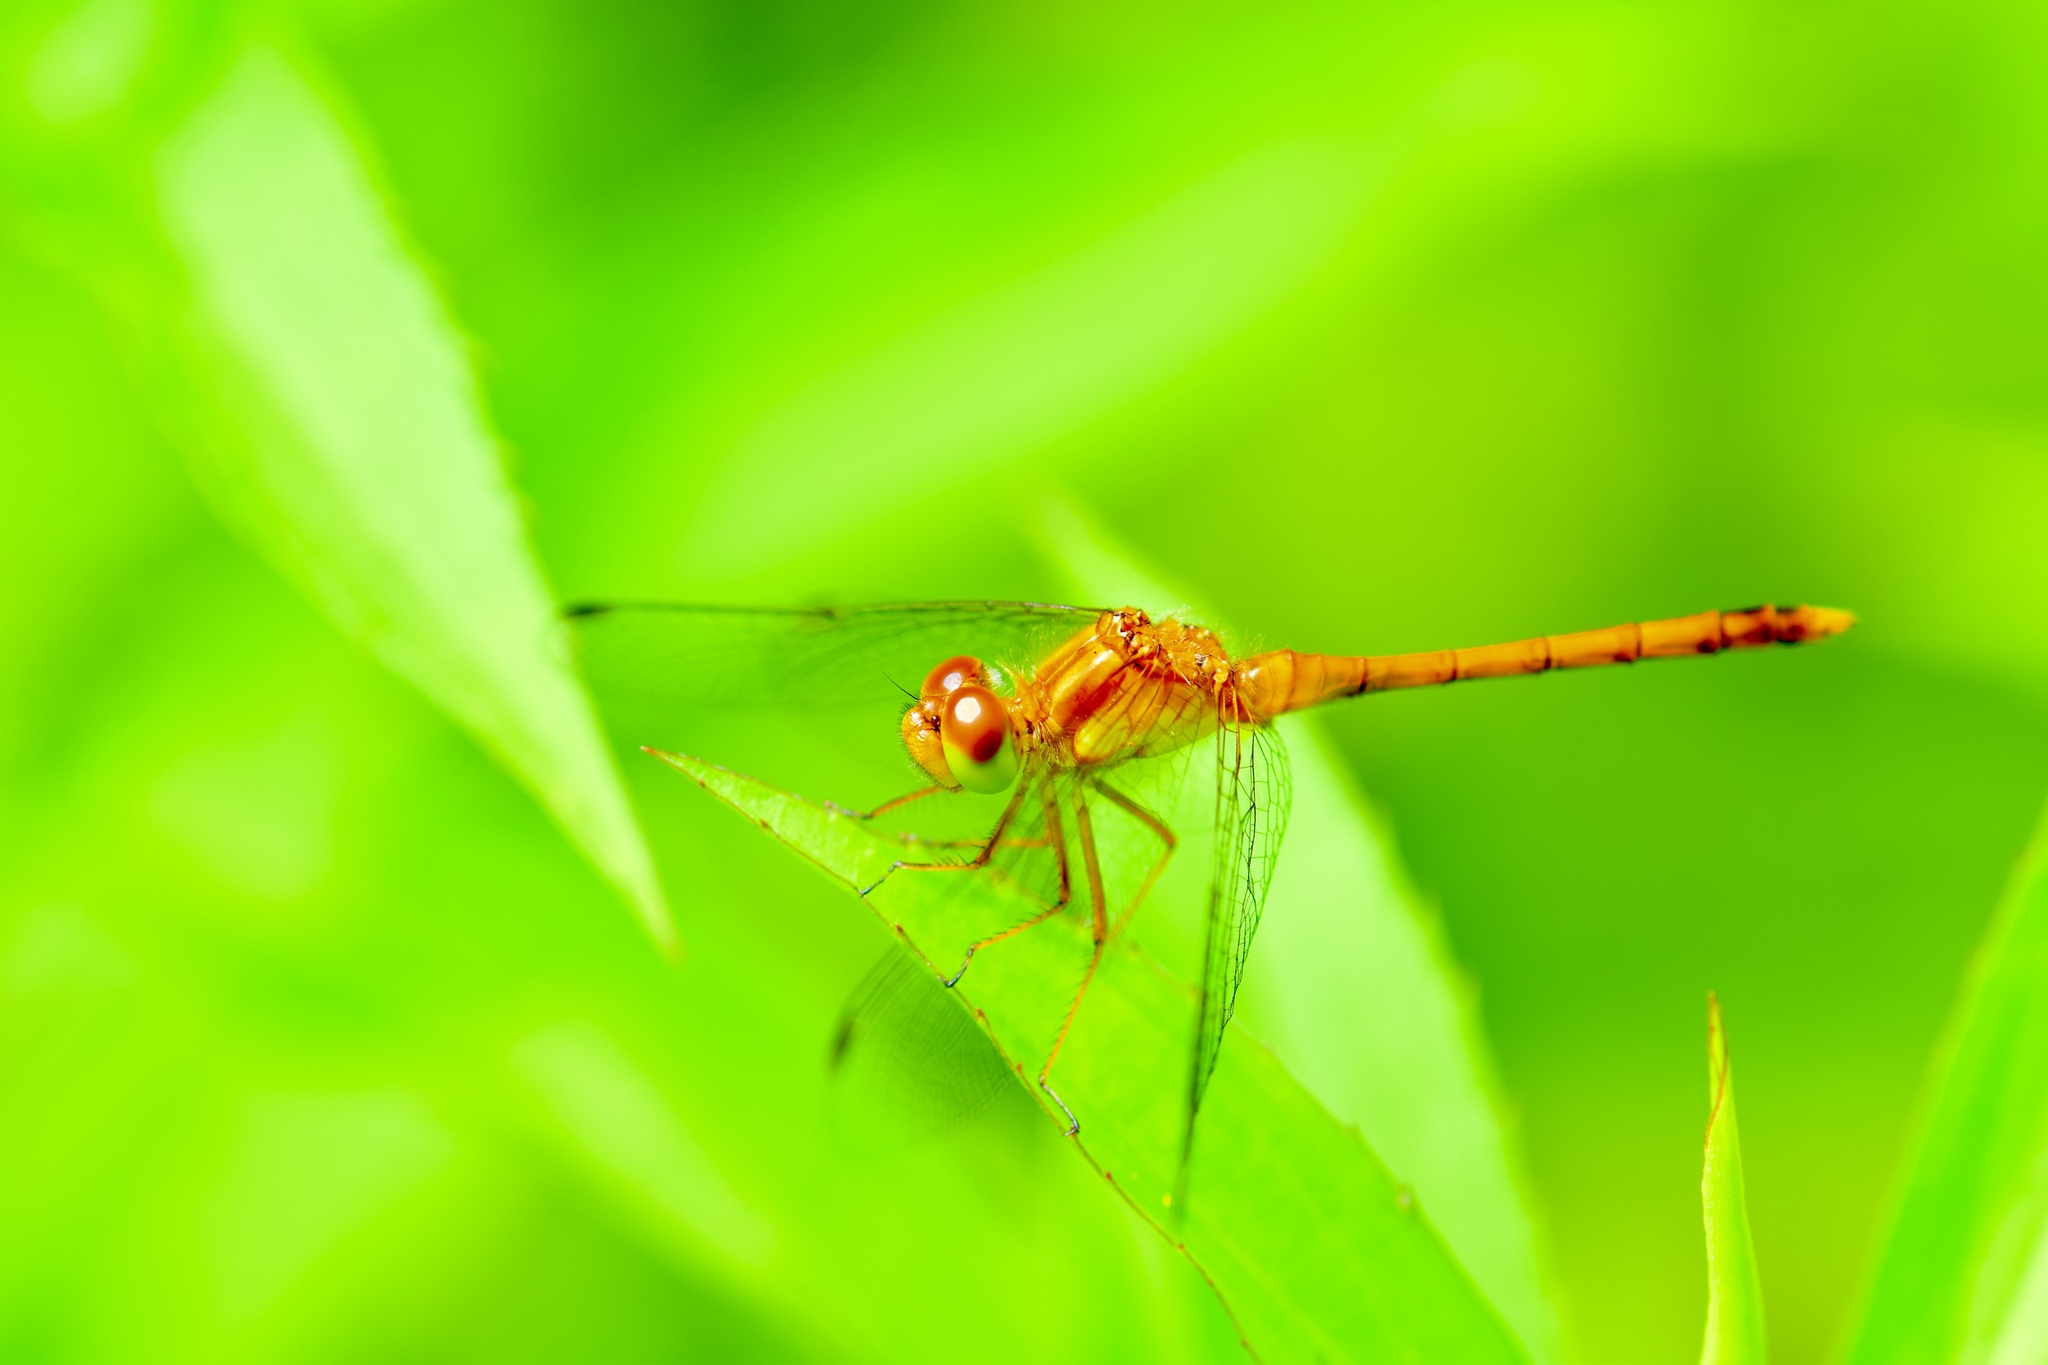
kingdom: Animalia
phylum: Arthropoda
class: Insecta
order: Odonata
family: Libellulidae
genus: Sympetrum
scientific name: Sympetrum vicinum
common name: Autumn meadowhawk
